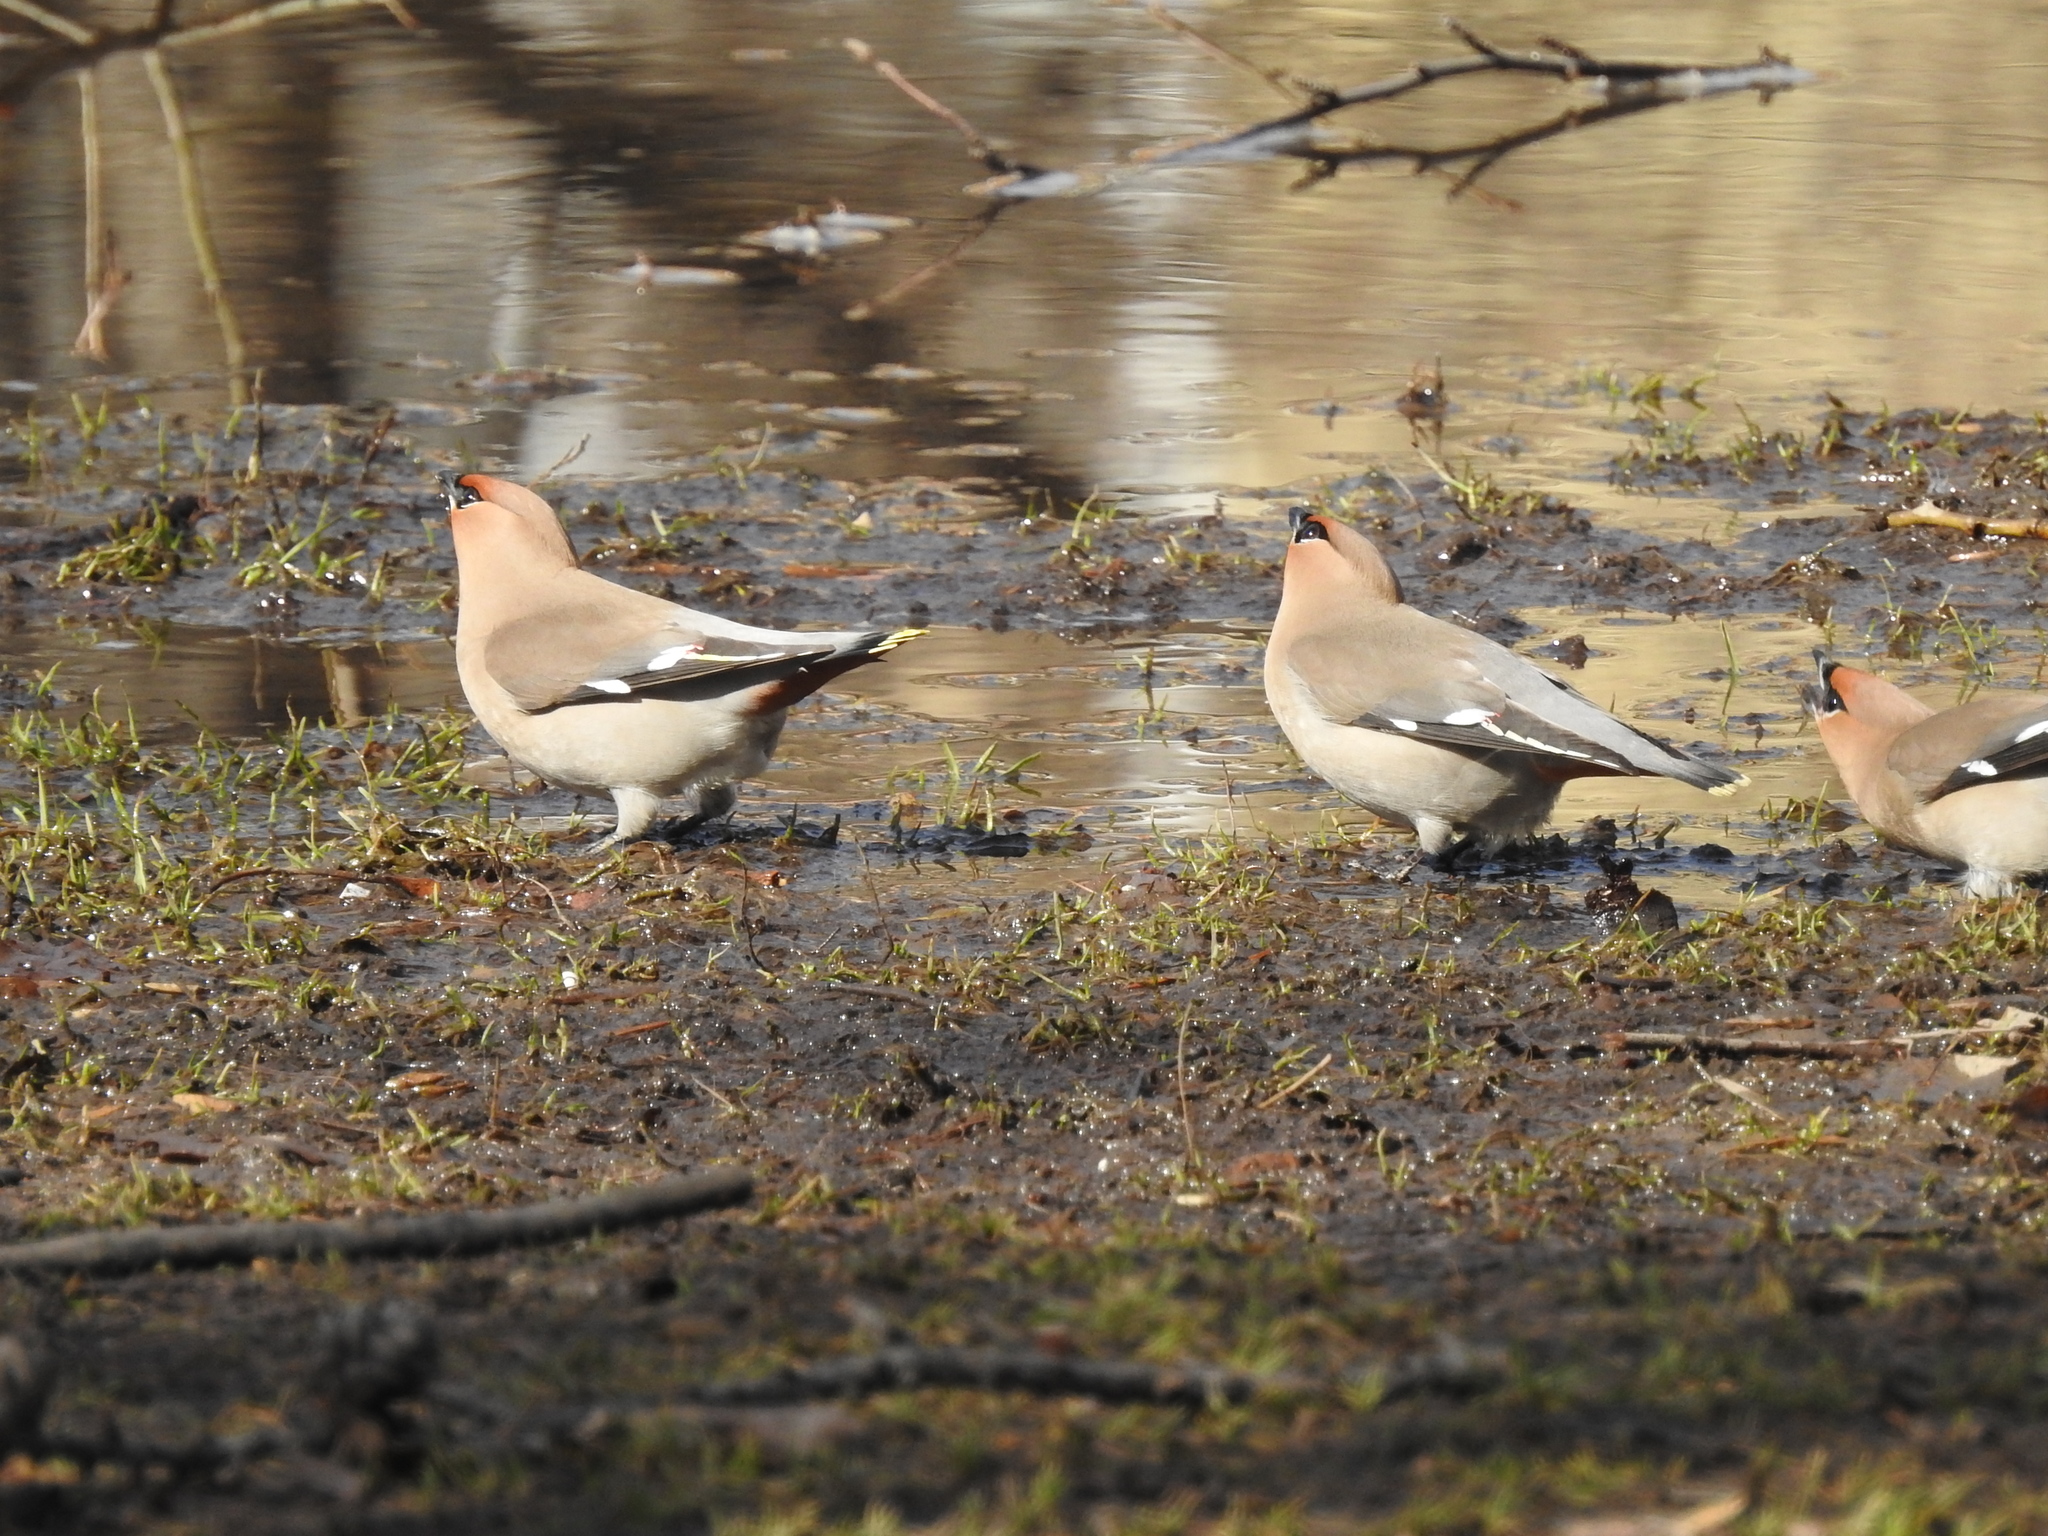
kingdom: Animalia
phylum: Chordata
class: Aves
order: Passeriformes
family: Bombycillidae
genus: Bombycilla
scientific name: Bombycilla garrulus
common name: Bohemian waxwing
